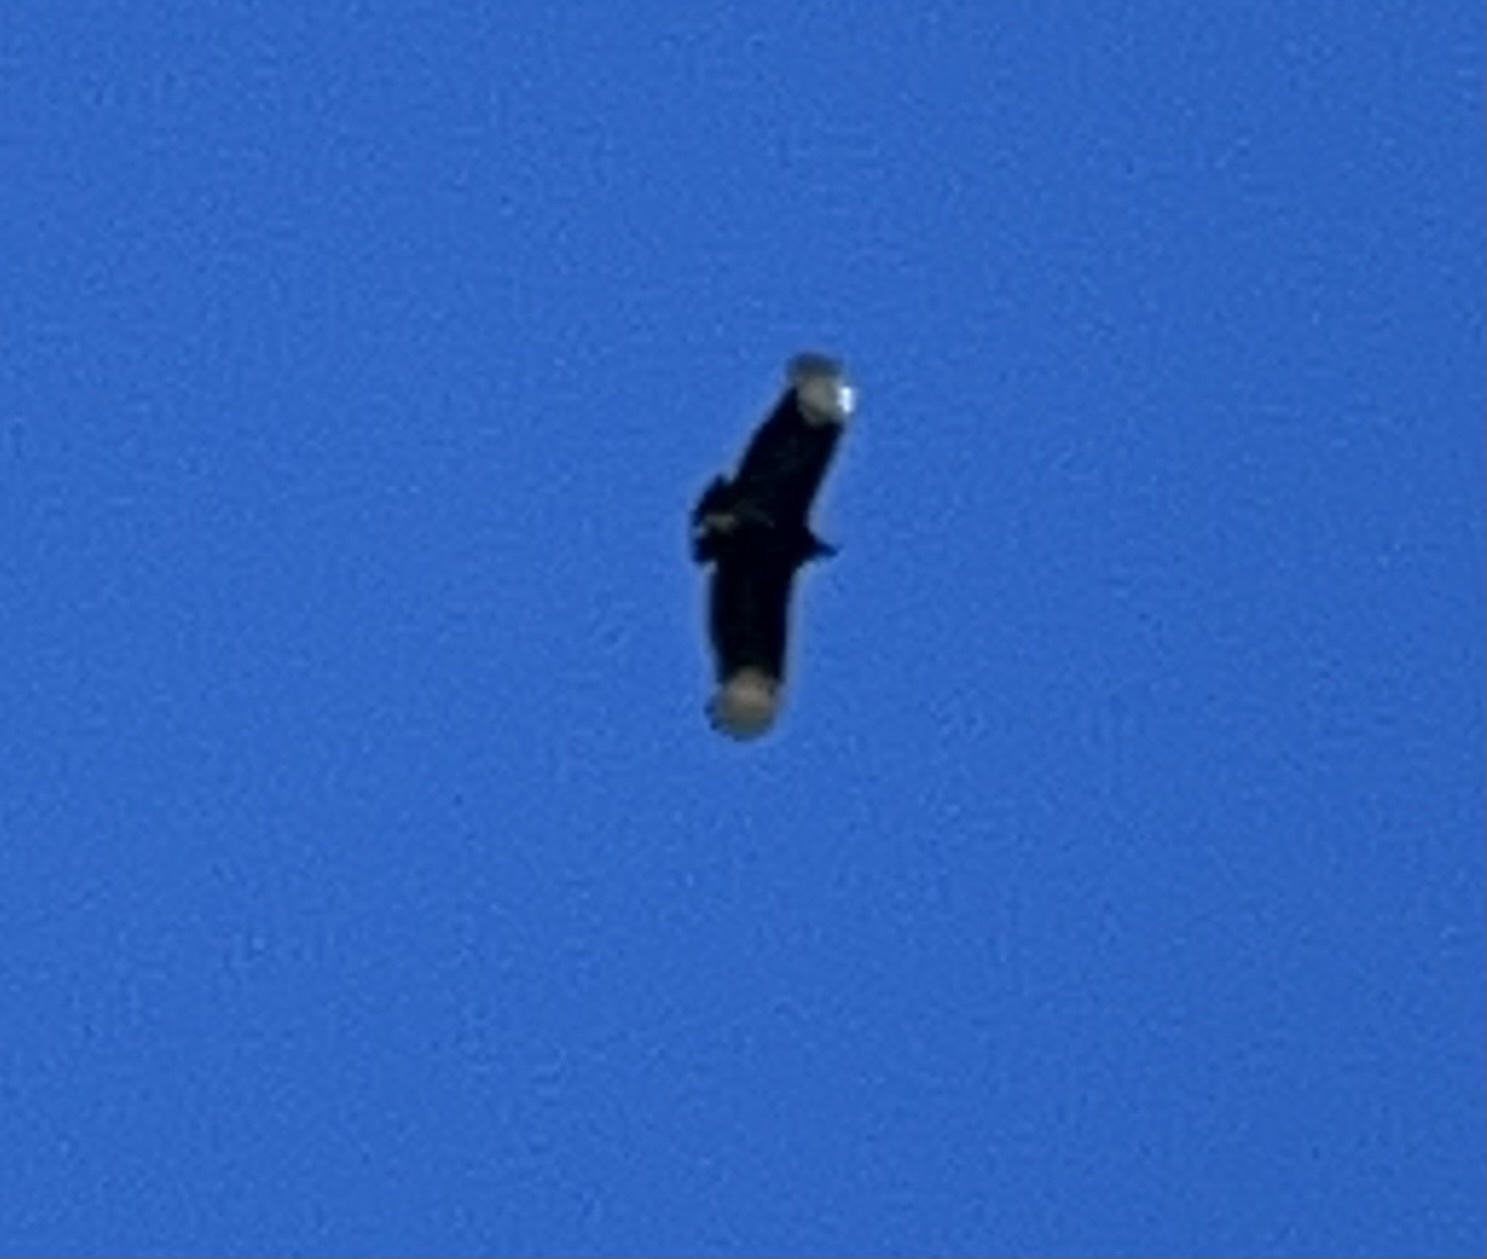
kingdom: Animalia
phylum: Chordata
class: Aves
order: Accipitriformes
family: Cathartidae
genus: Coragyps
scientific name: Coragyps atratus
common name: Black vulture
